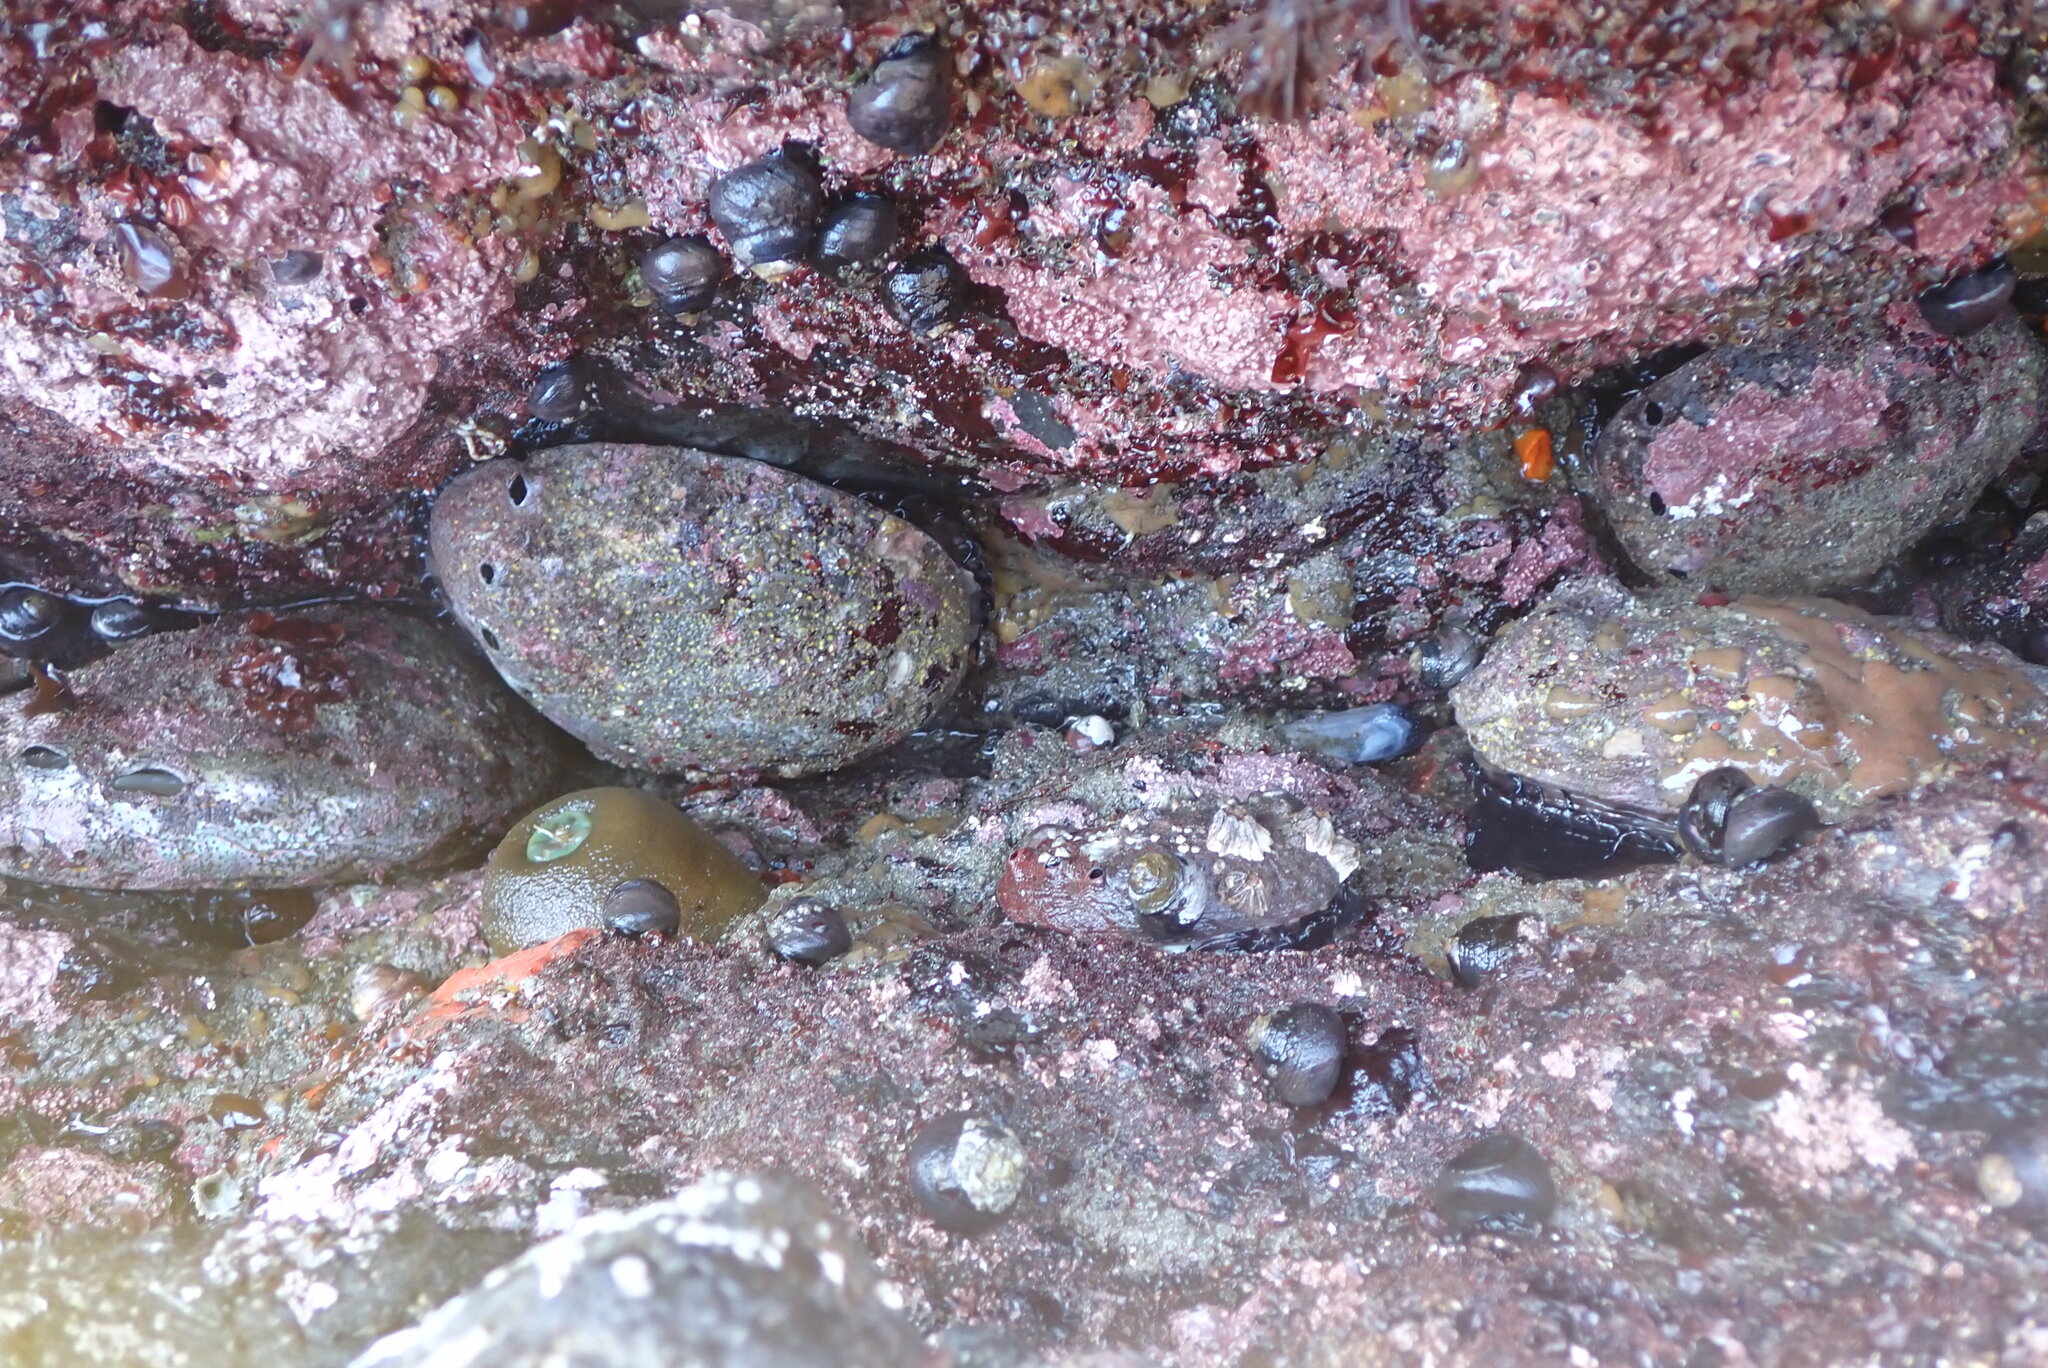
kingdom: Animalia
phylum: Mollusca
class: Gastropoda
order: Lepetellida
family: Haliotidae
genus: Haliotis
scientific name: Haliotis rufescens
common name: Red abalone
